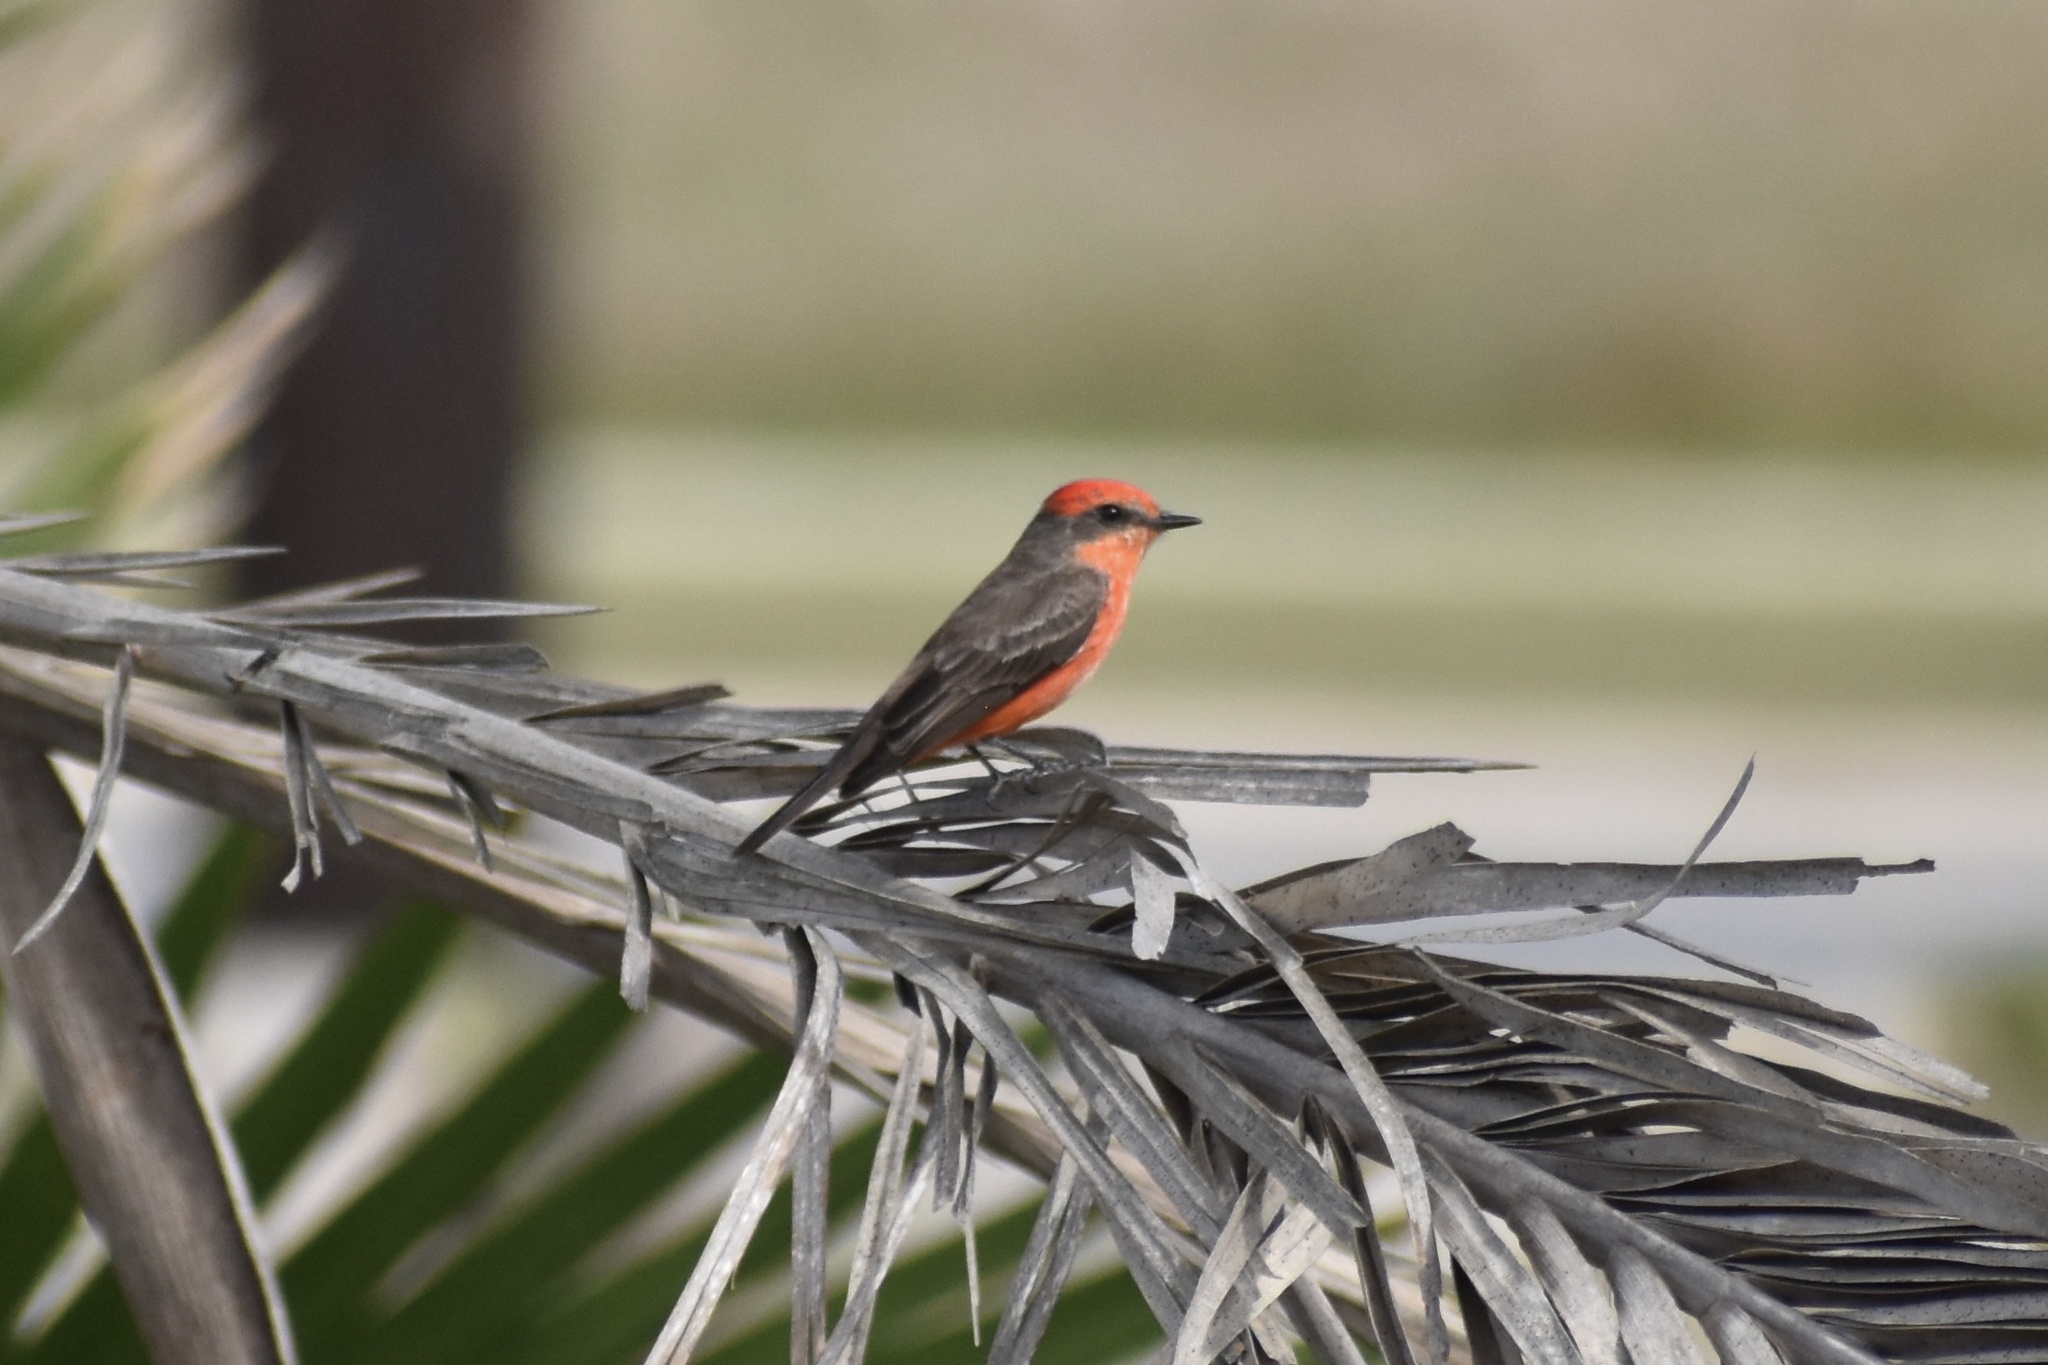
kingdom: Animalia
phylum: Chordata
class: Aves
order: Passeriformes
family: Tyrannidae
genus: Pyrocephalus
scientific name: Pyrocephalus rubinus
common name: Vermilion flycatcher
